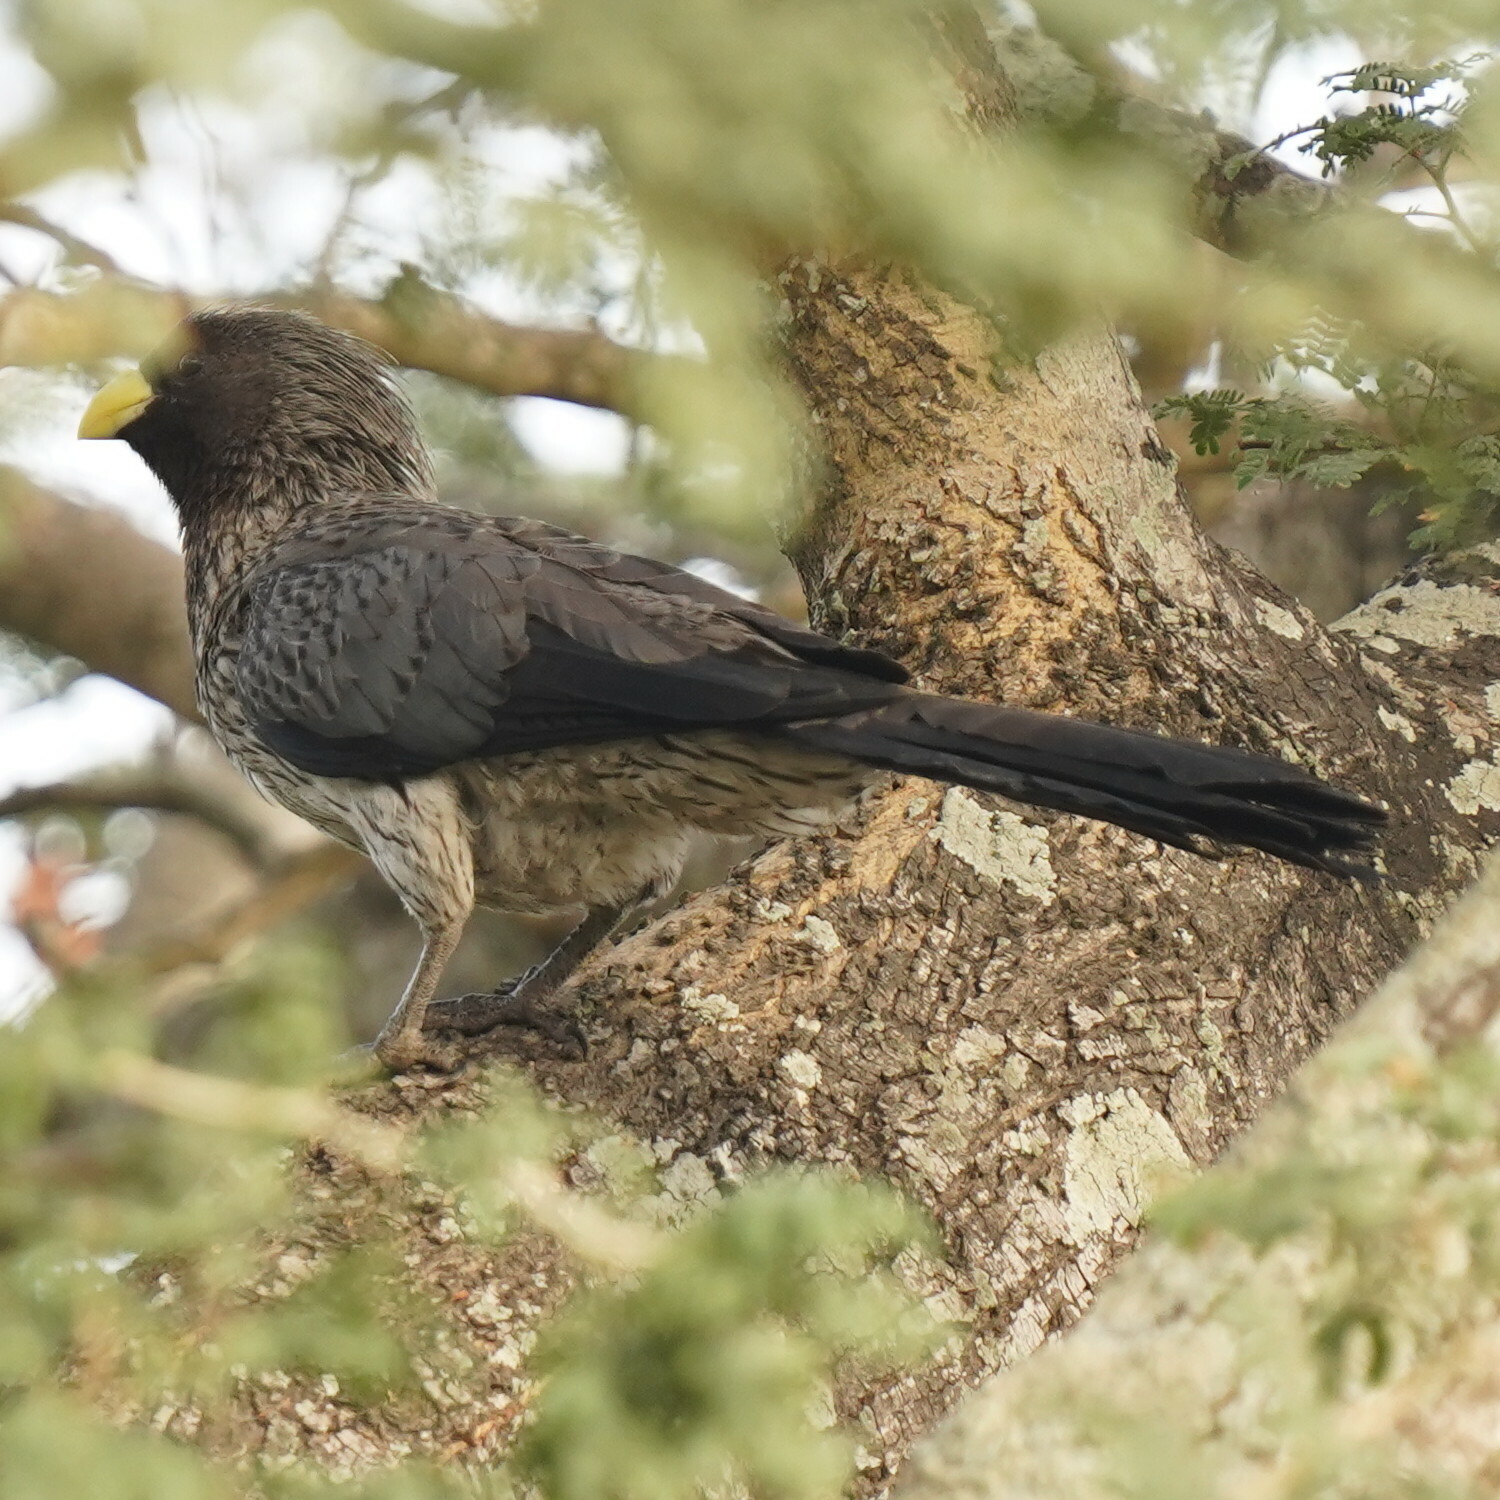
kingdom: Animalia
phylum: Chordata
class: Aves
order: Musophagiformes
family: Musophagidae
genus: Crinifer
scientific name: Crinifer piscator
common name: Western plantain-eater
